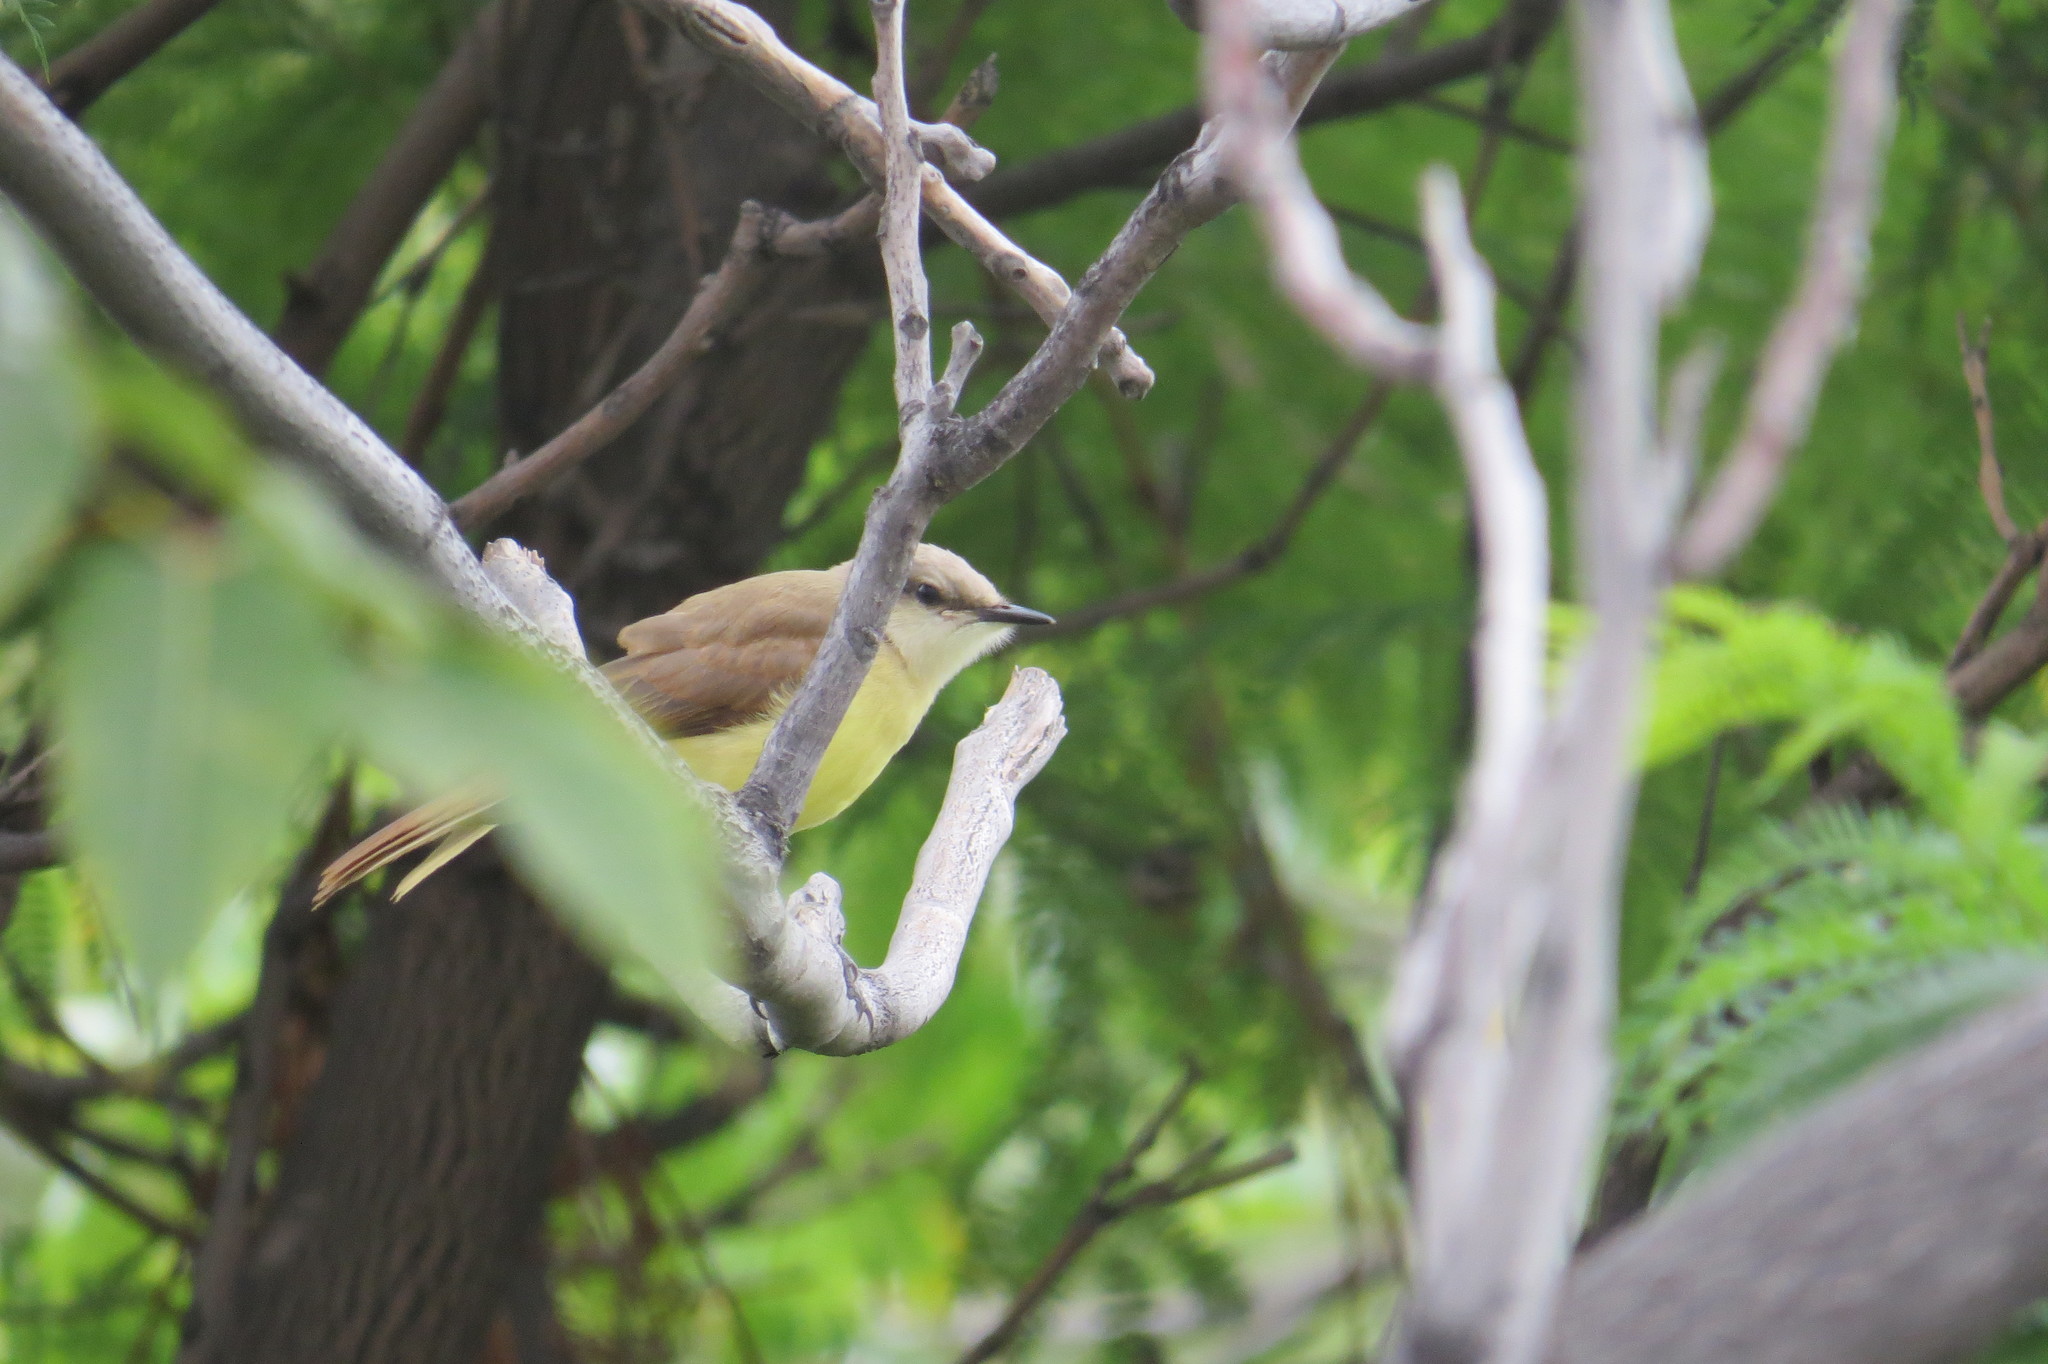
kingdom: Animalia
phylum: Chordata
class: Aves
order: Passeriformes
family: Tyrannidae
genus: Machetornis
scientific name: Machetornis rixosa
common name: Cattle tyrant
